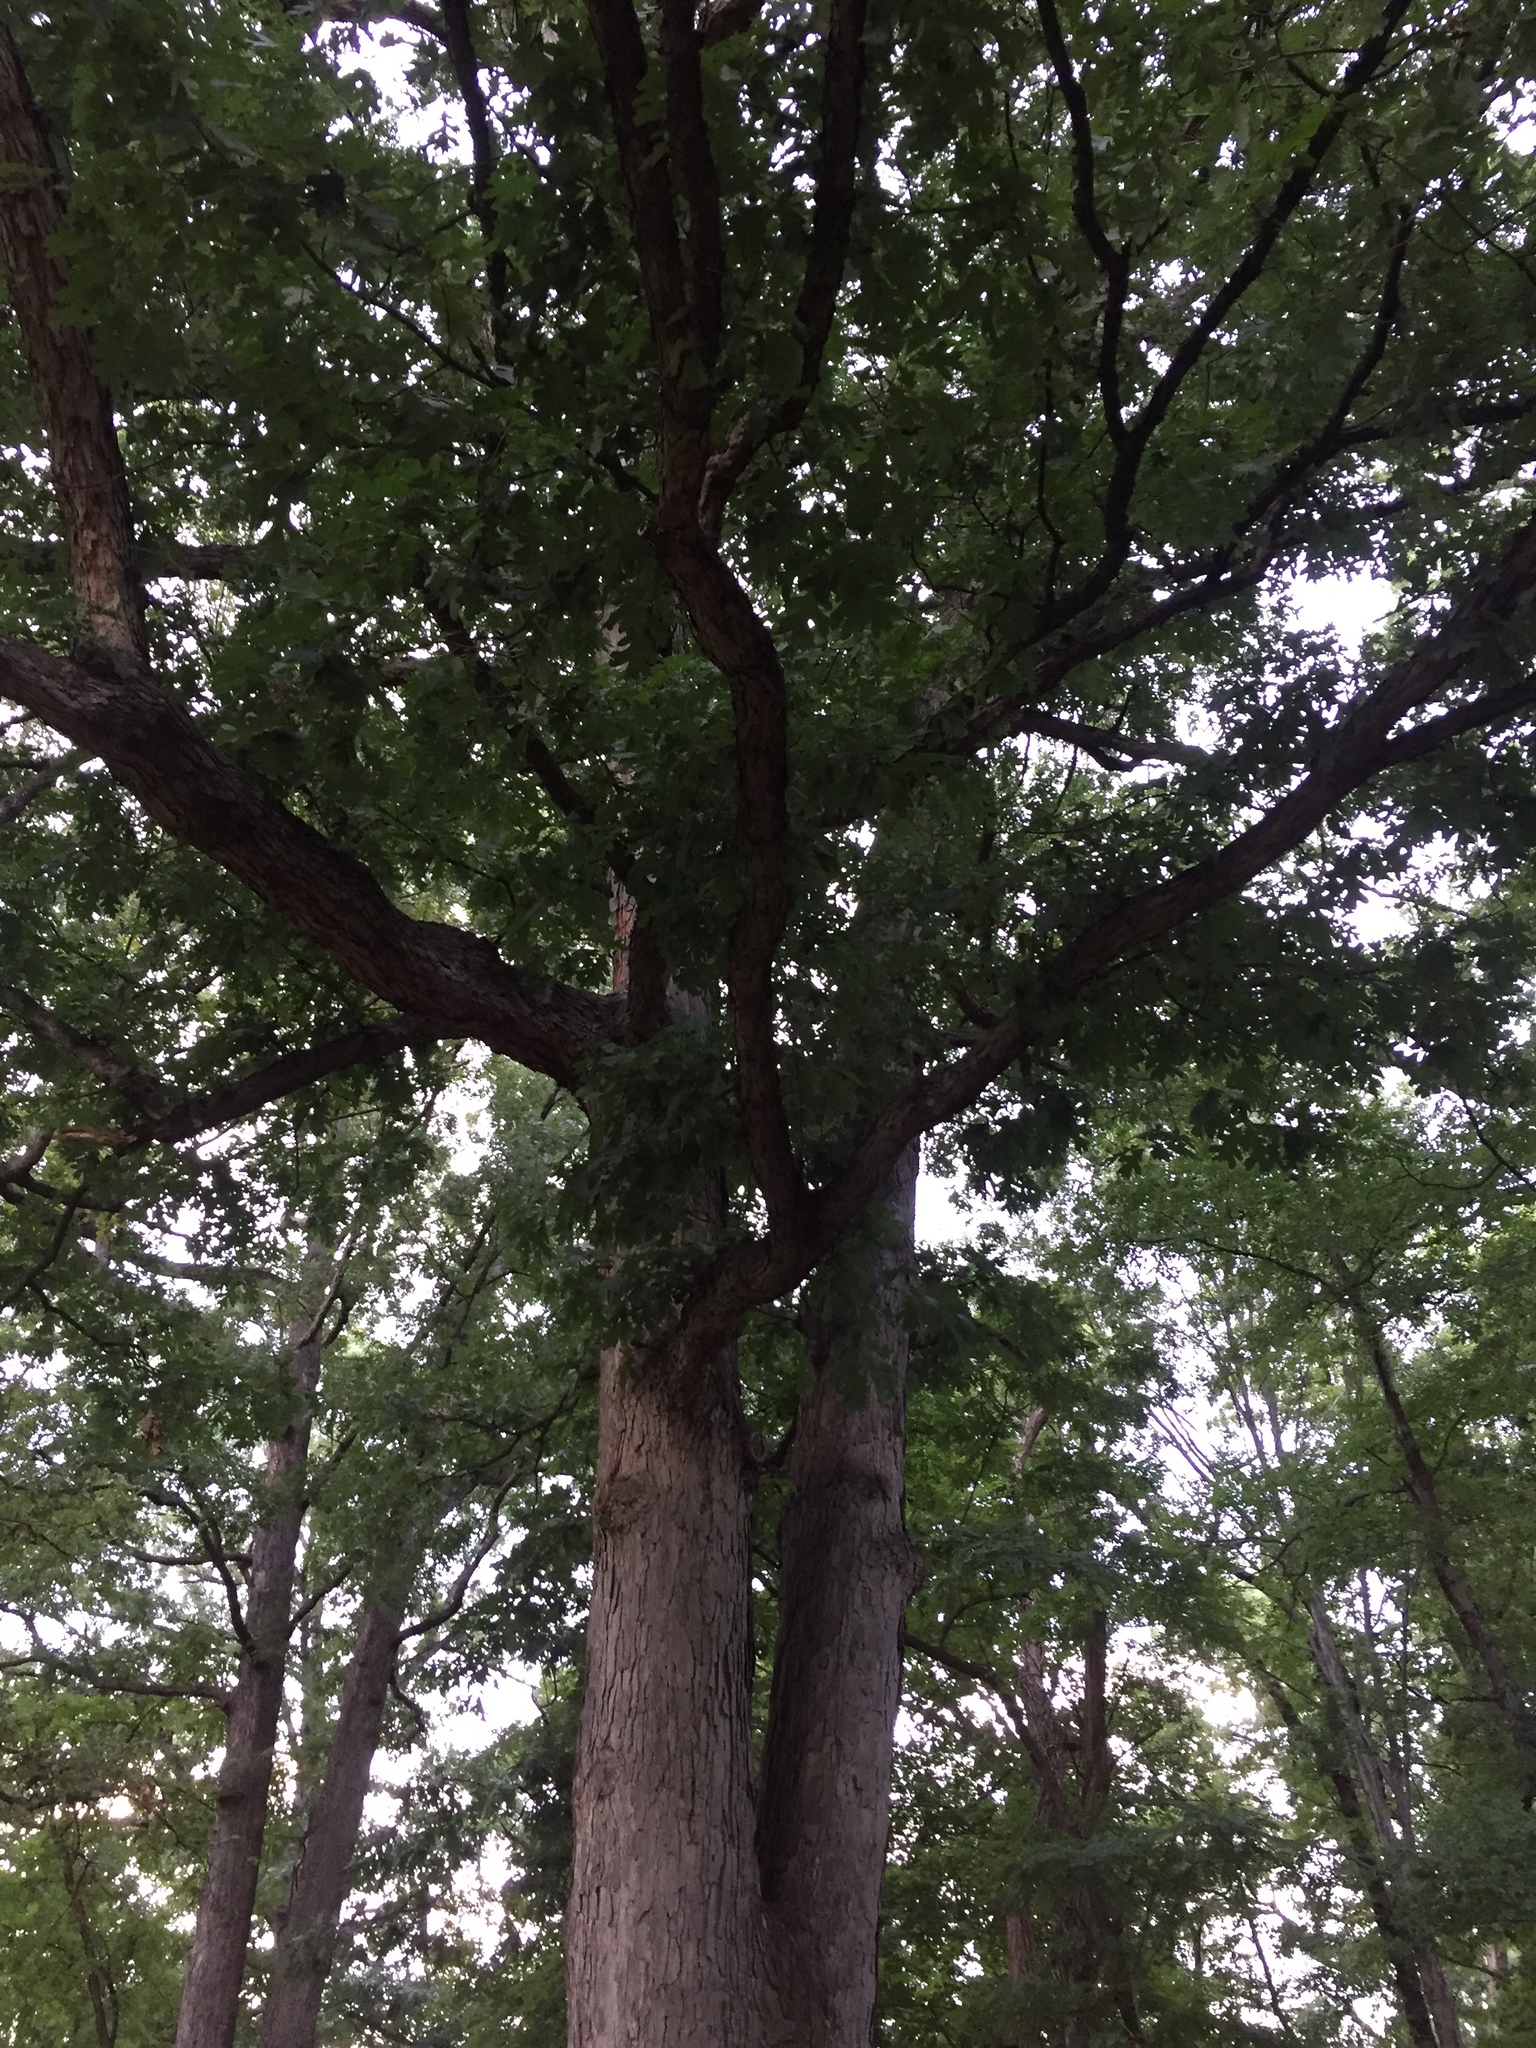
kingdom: Plantae
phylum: Tracheophyta
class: Magnoliopsida
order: Fagales
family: Fagaceae
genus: Quercus
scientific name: Quercus alba
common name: White oak
